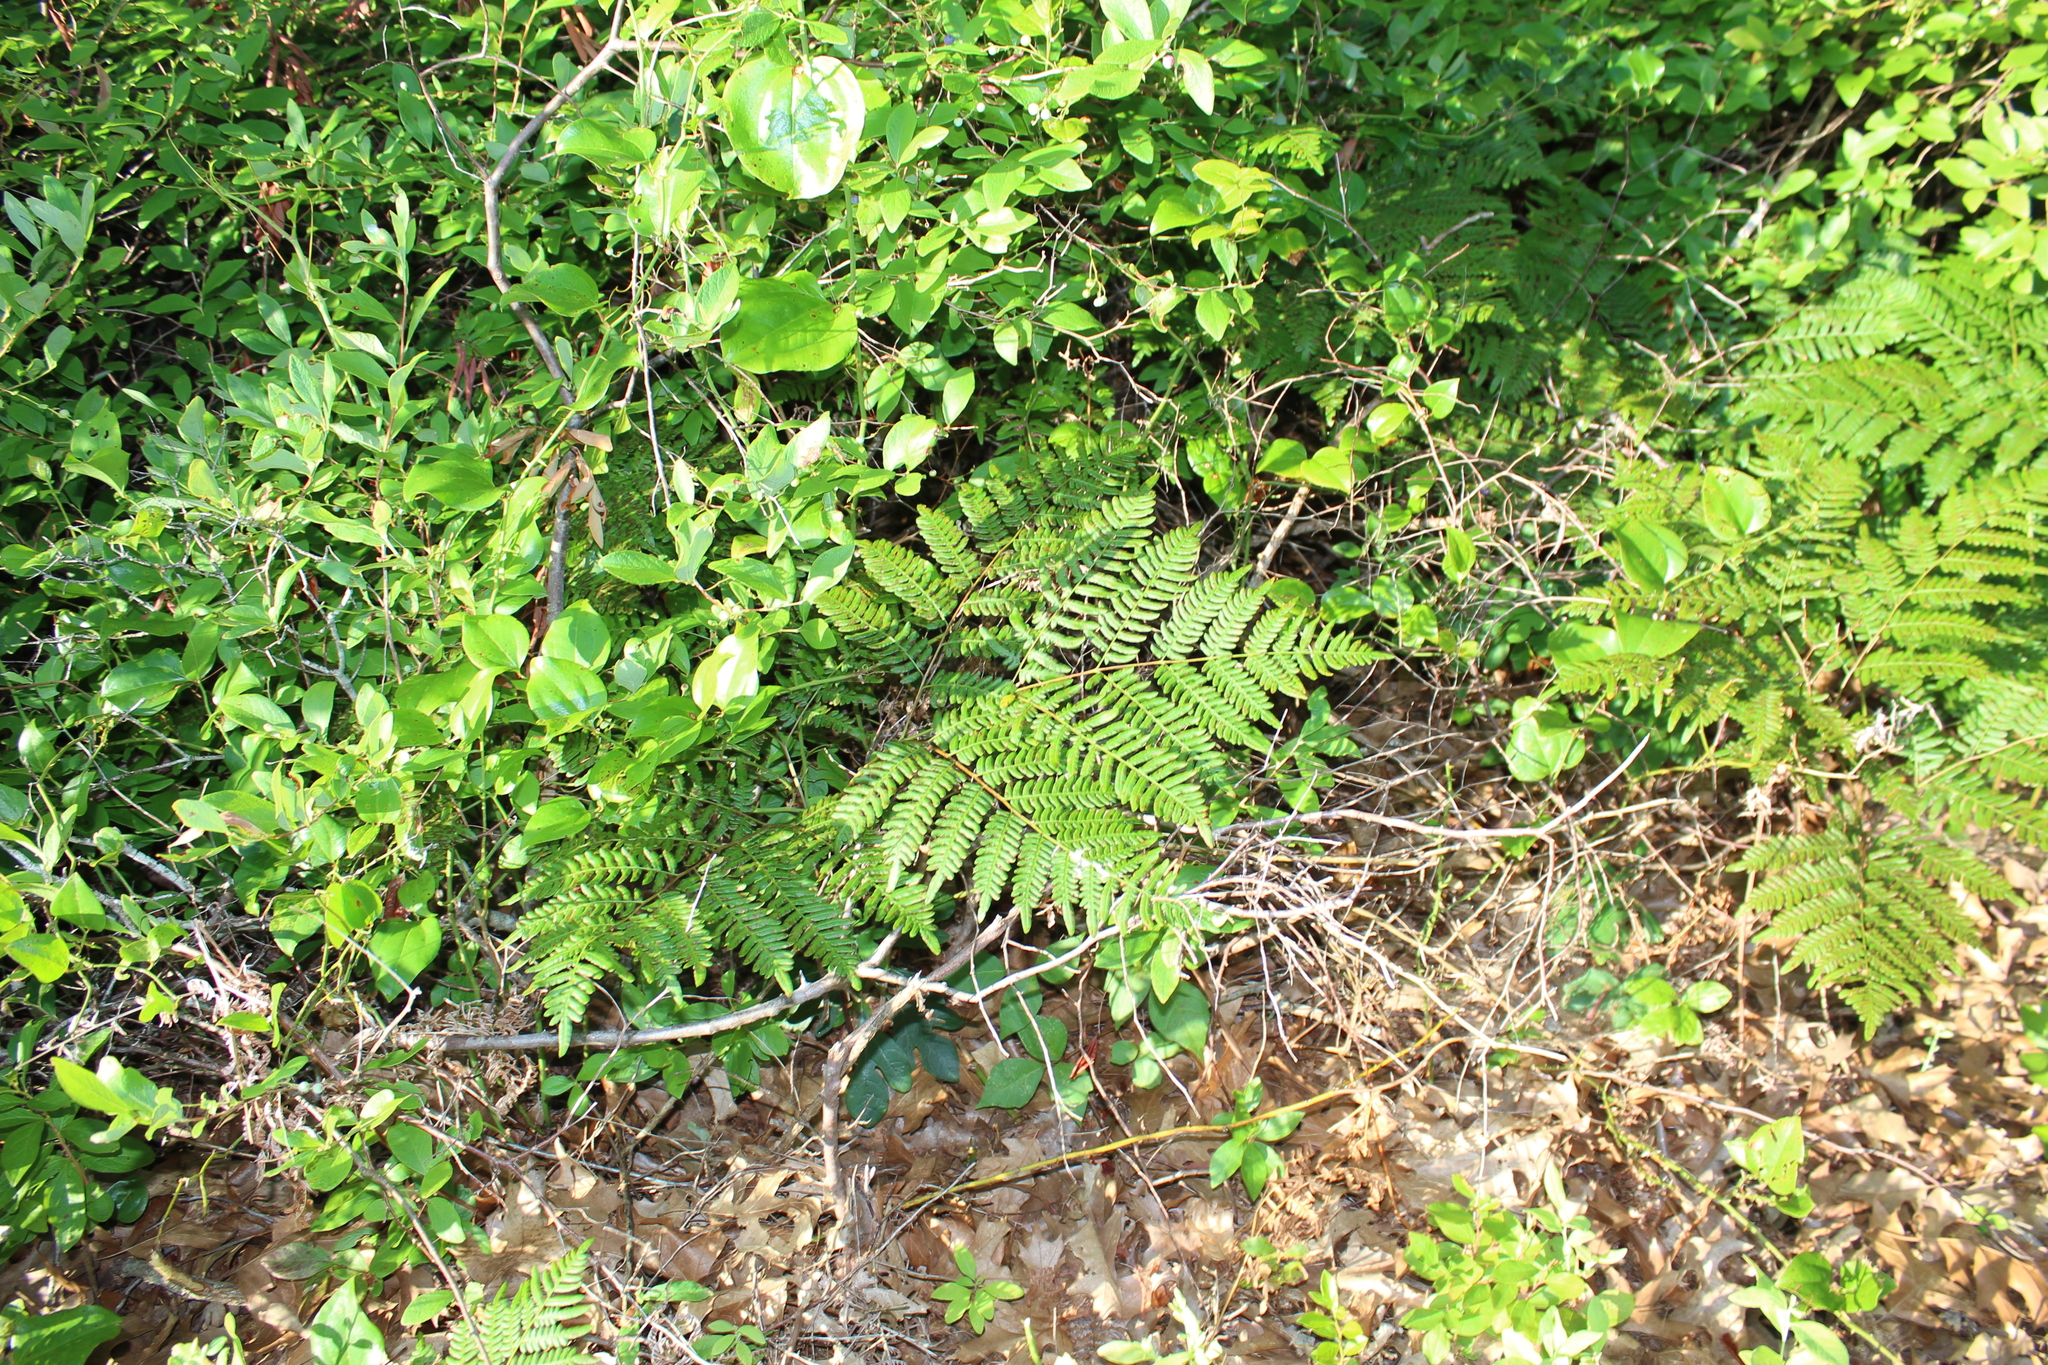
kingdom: Plantae
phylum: Tracheophyta
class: Polypodiopsida
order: Polypodiales
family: Dennstaedtiaceae
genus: Pteridium
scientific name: Pteridium aquilinum
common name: Bracken
